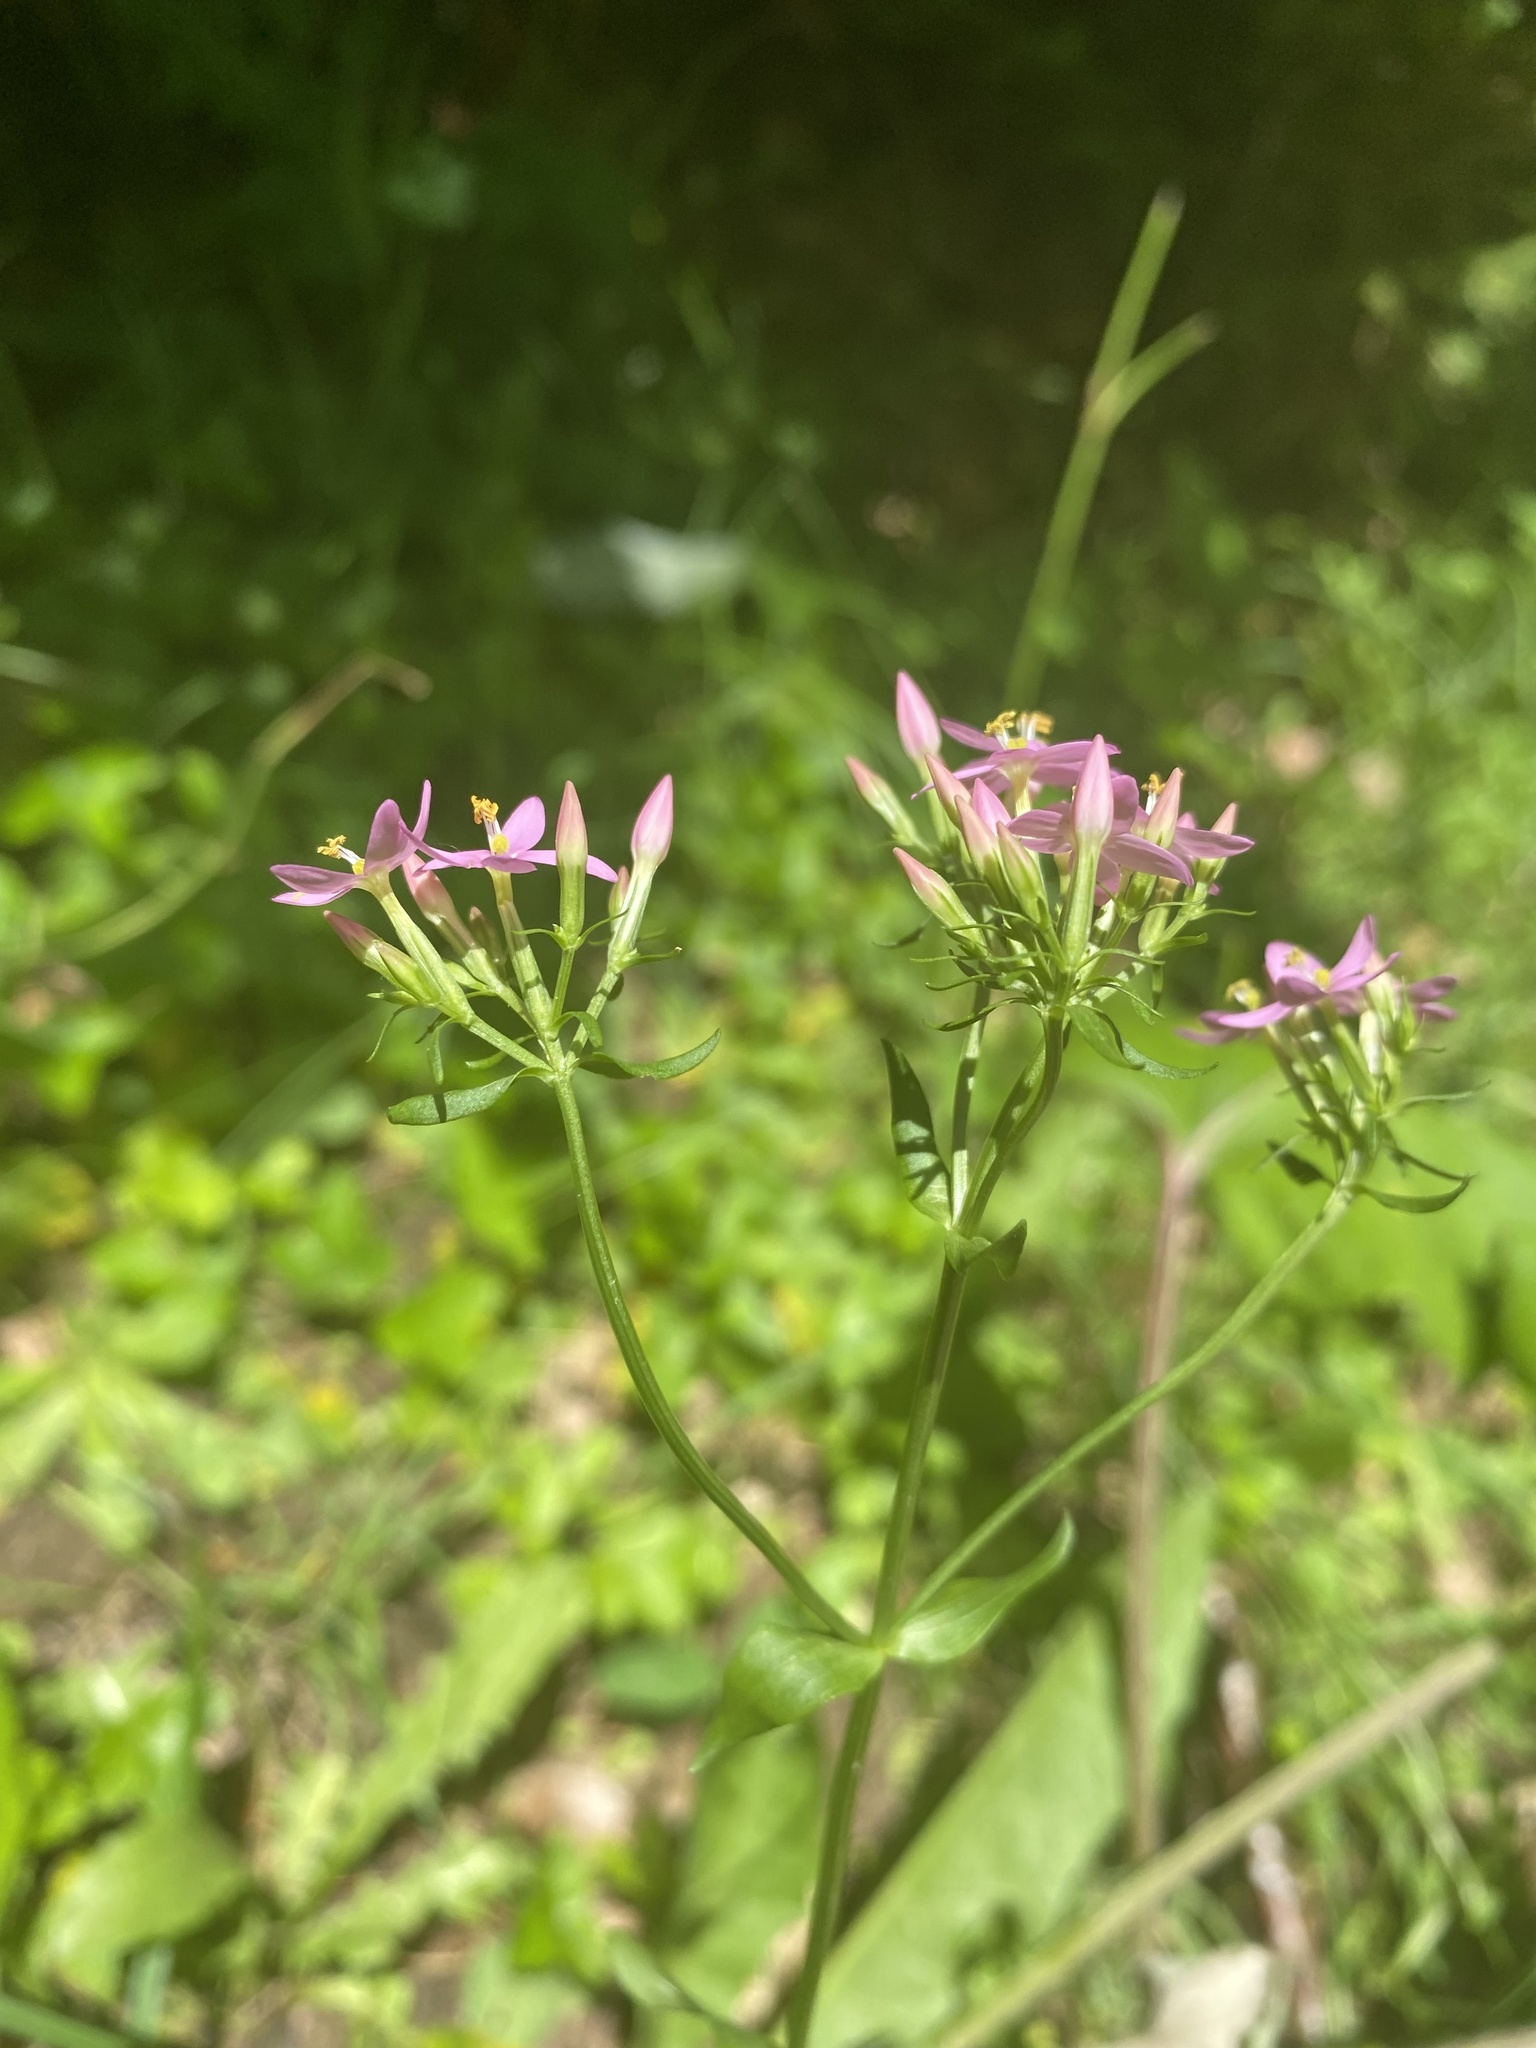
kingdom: Plantae
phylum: Tracheophyta
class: Magnoliopsida
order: Gentianales
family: Gentianaceae
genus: Centaurium
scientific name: Centaurium erythraea
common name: Common centaury
